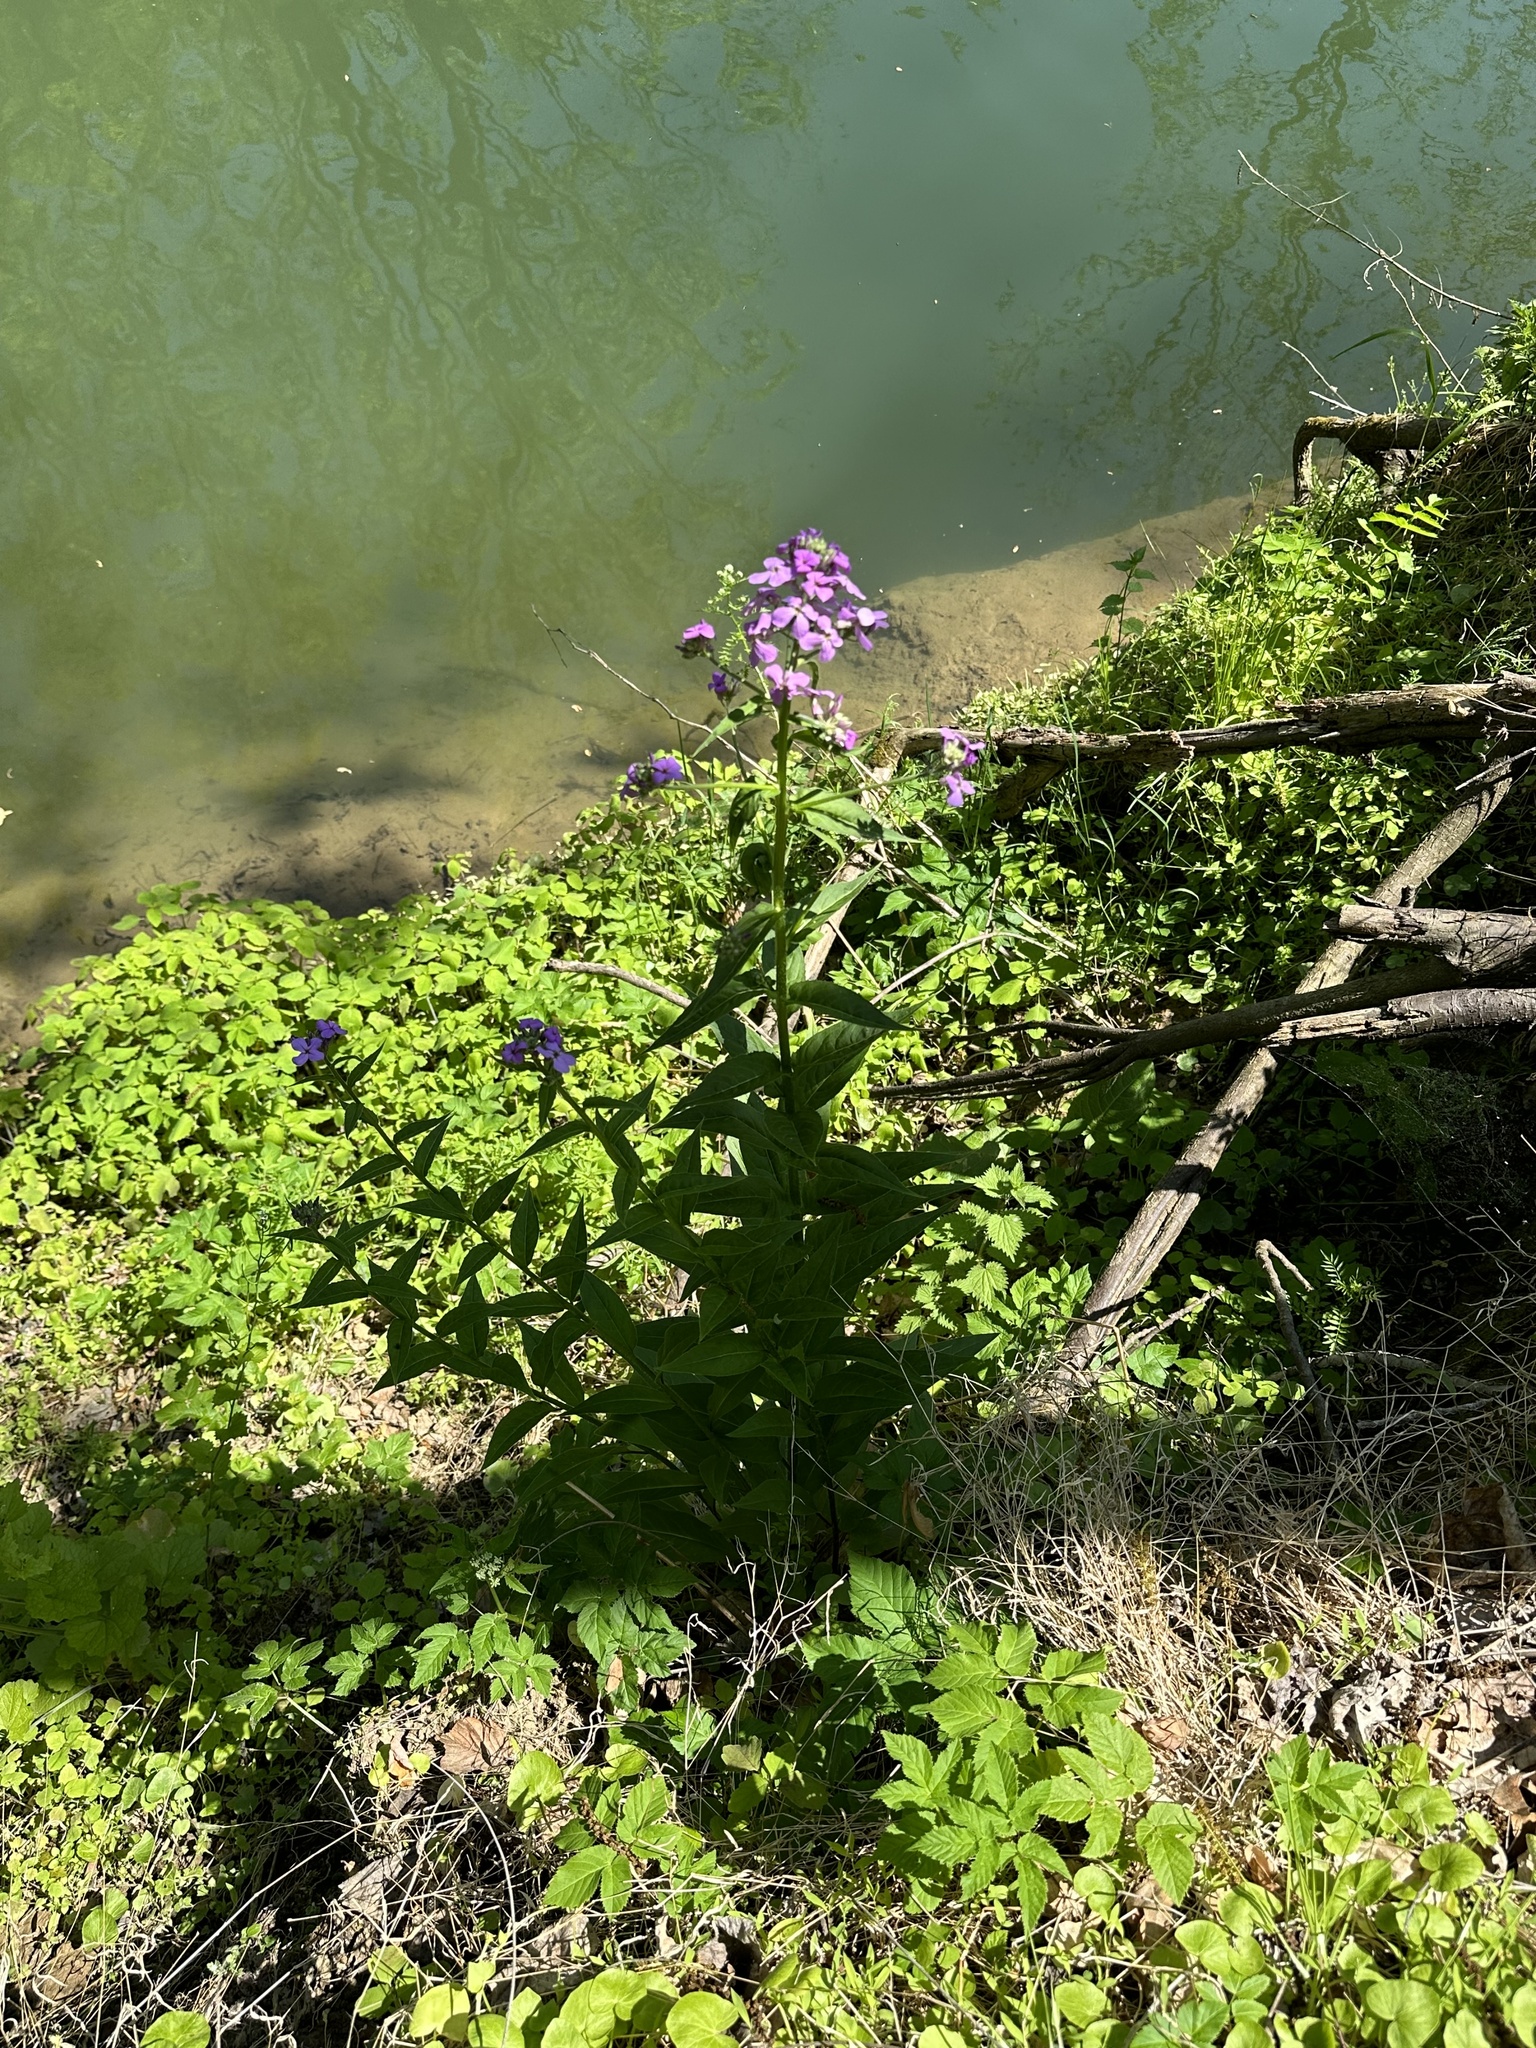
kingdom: Plantae
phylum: Tracheophyta
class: Magnoliopsida
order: Brassicales
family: Brassicaceae
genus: Hesperis
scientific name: Hesperis matronalis
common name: Dame's-violet
